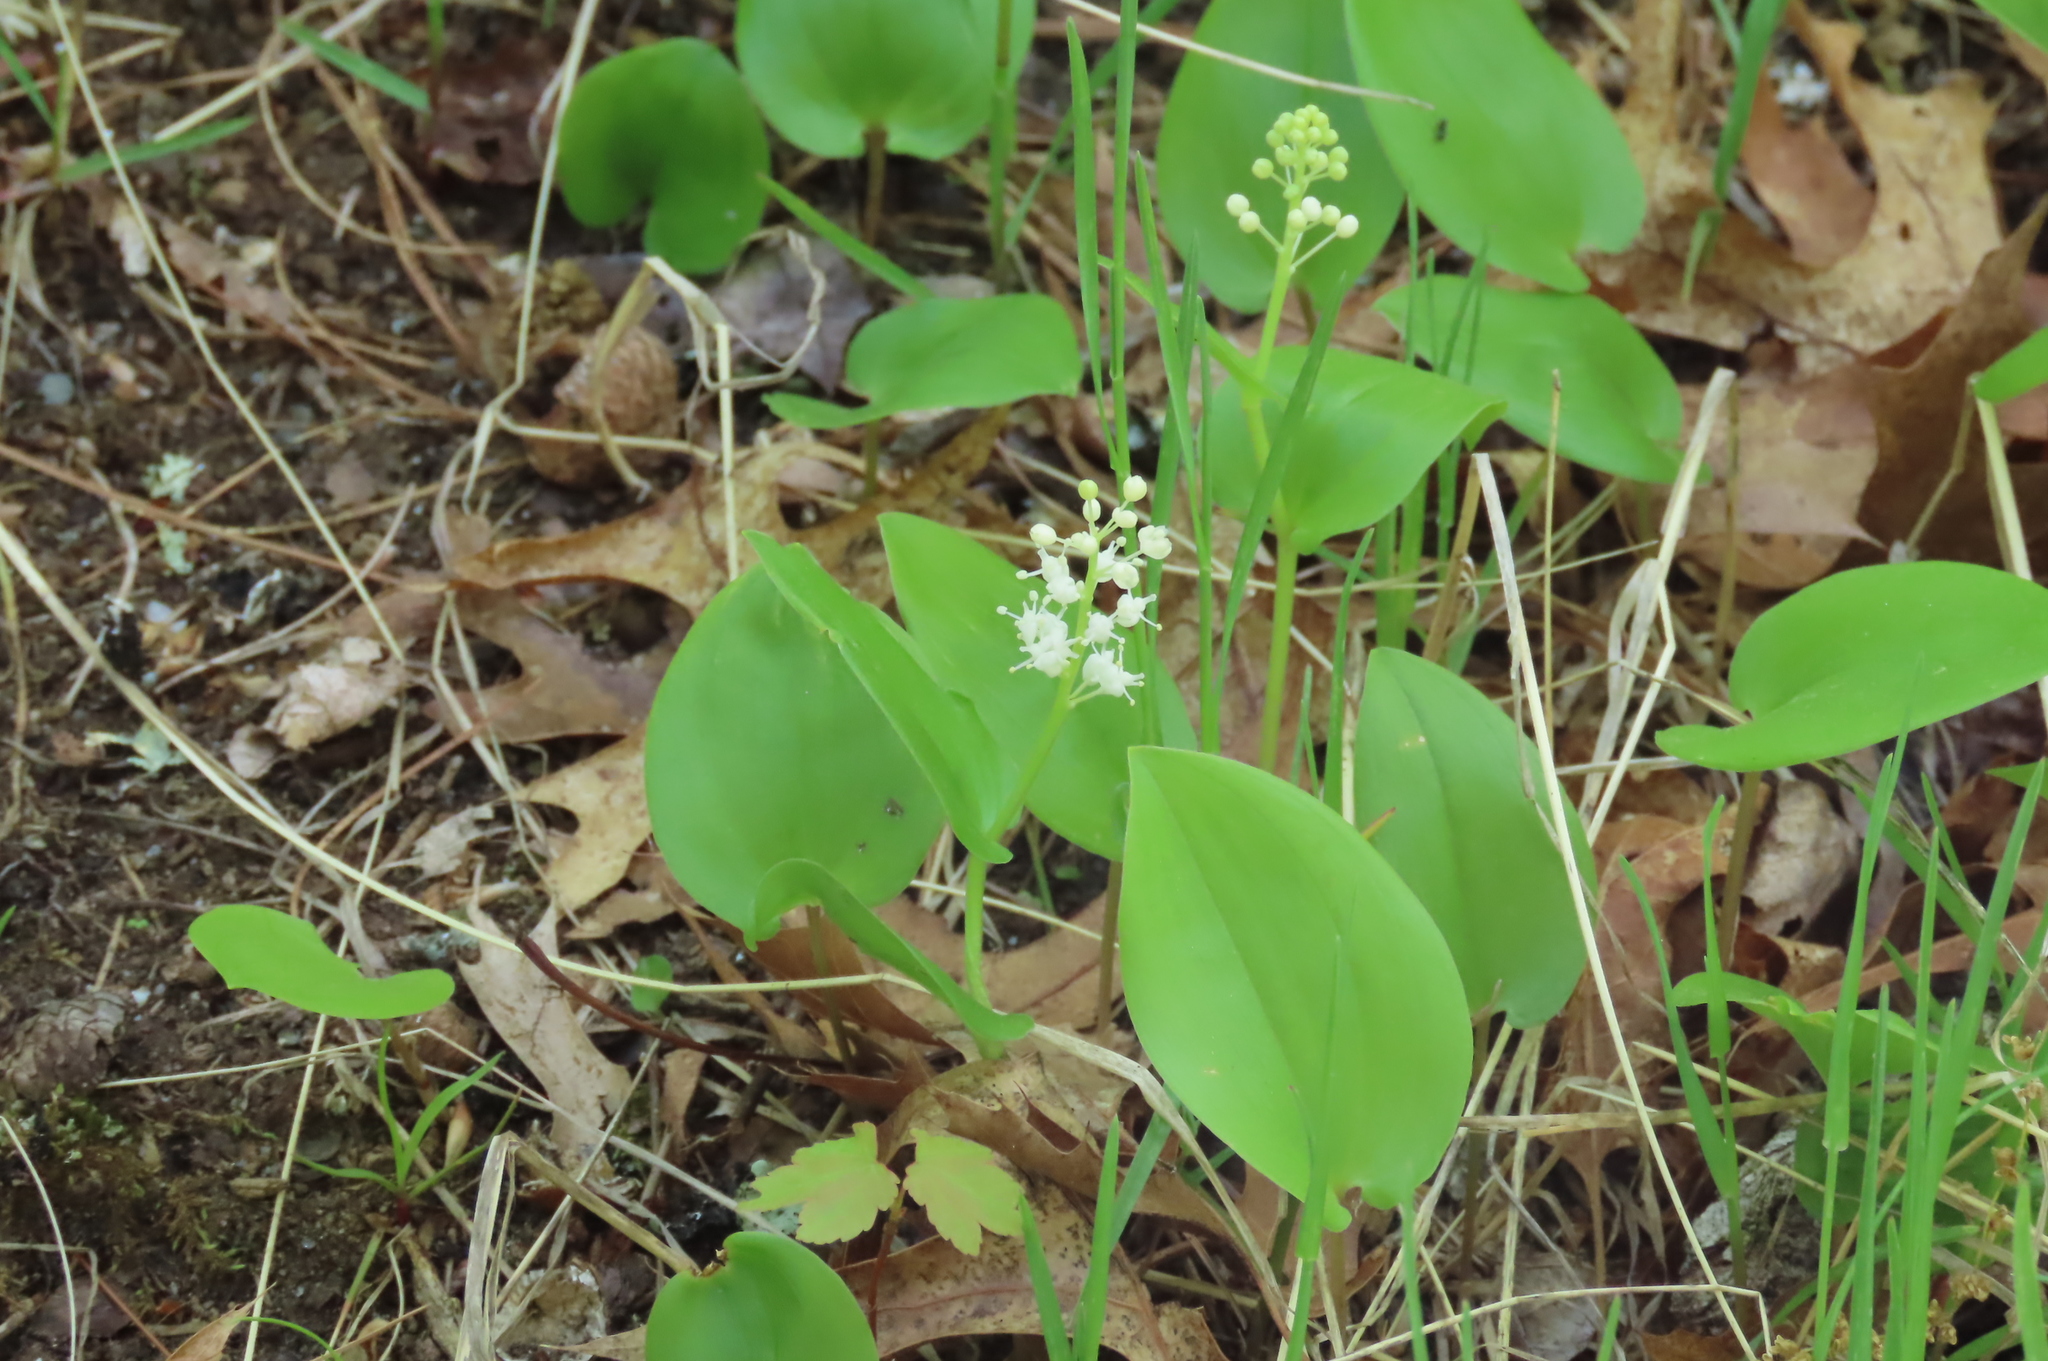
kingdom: Plantae
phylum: Tracheophyta
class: Liliopsida
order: Asparagales
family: Asparagaceae
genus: Maianthemum
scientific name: Maianthemum canadense
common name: False lily-of-the-valley
